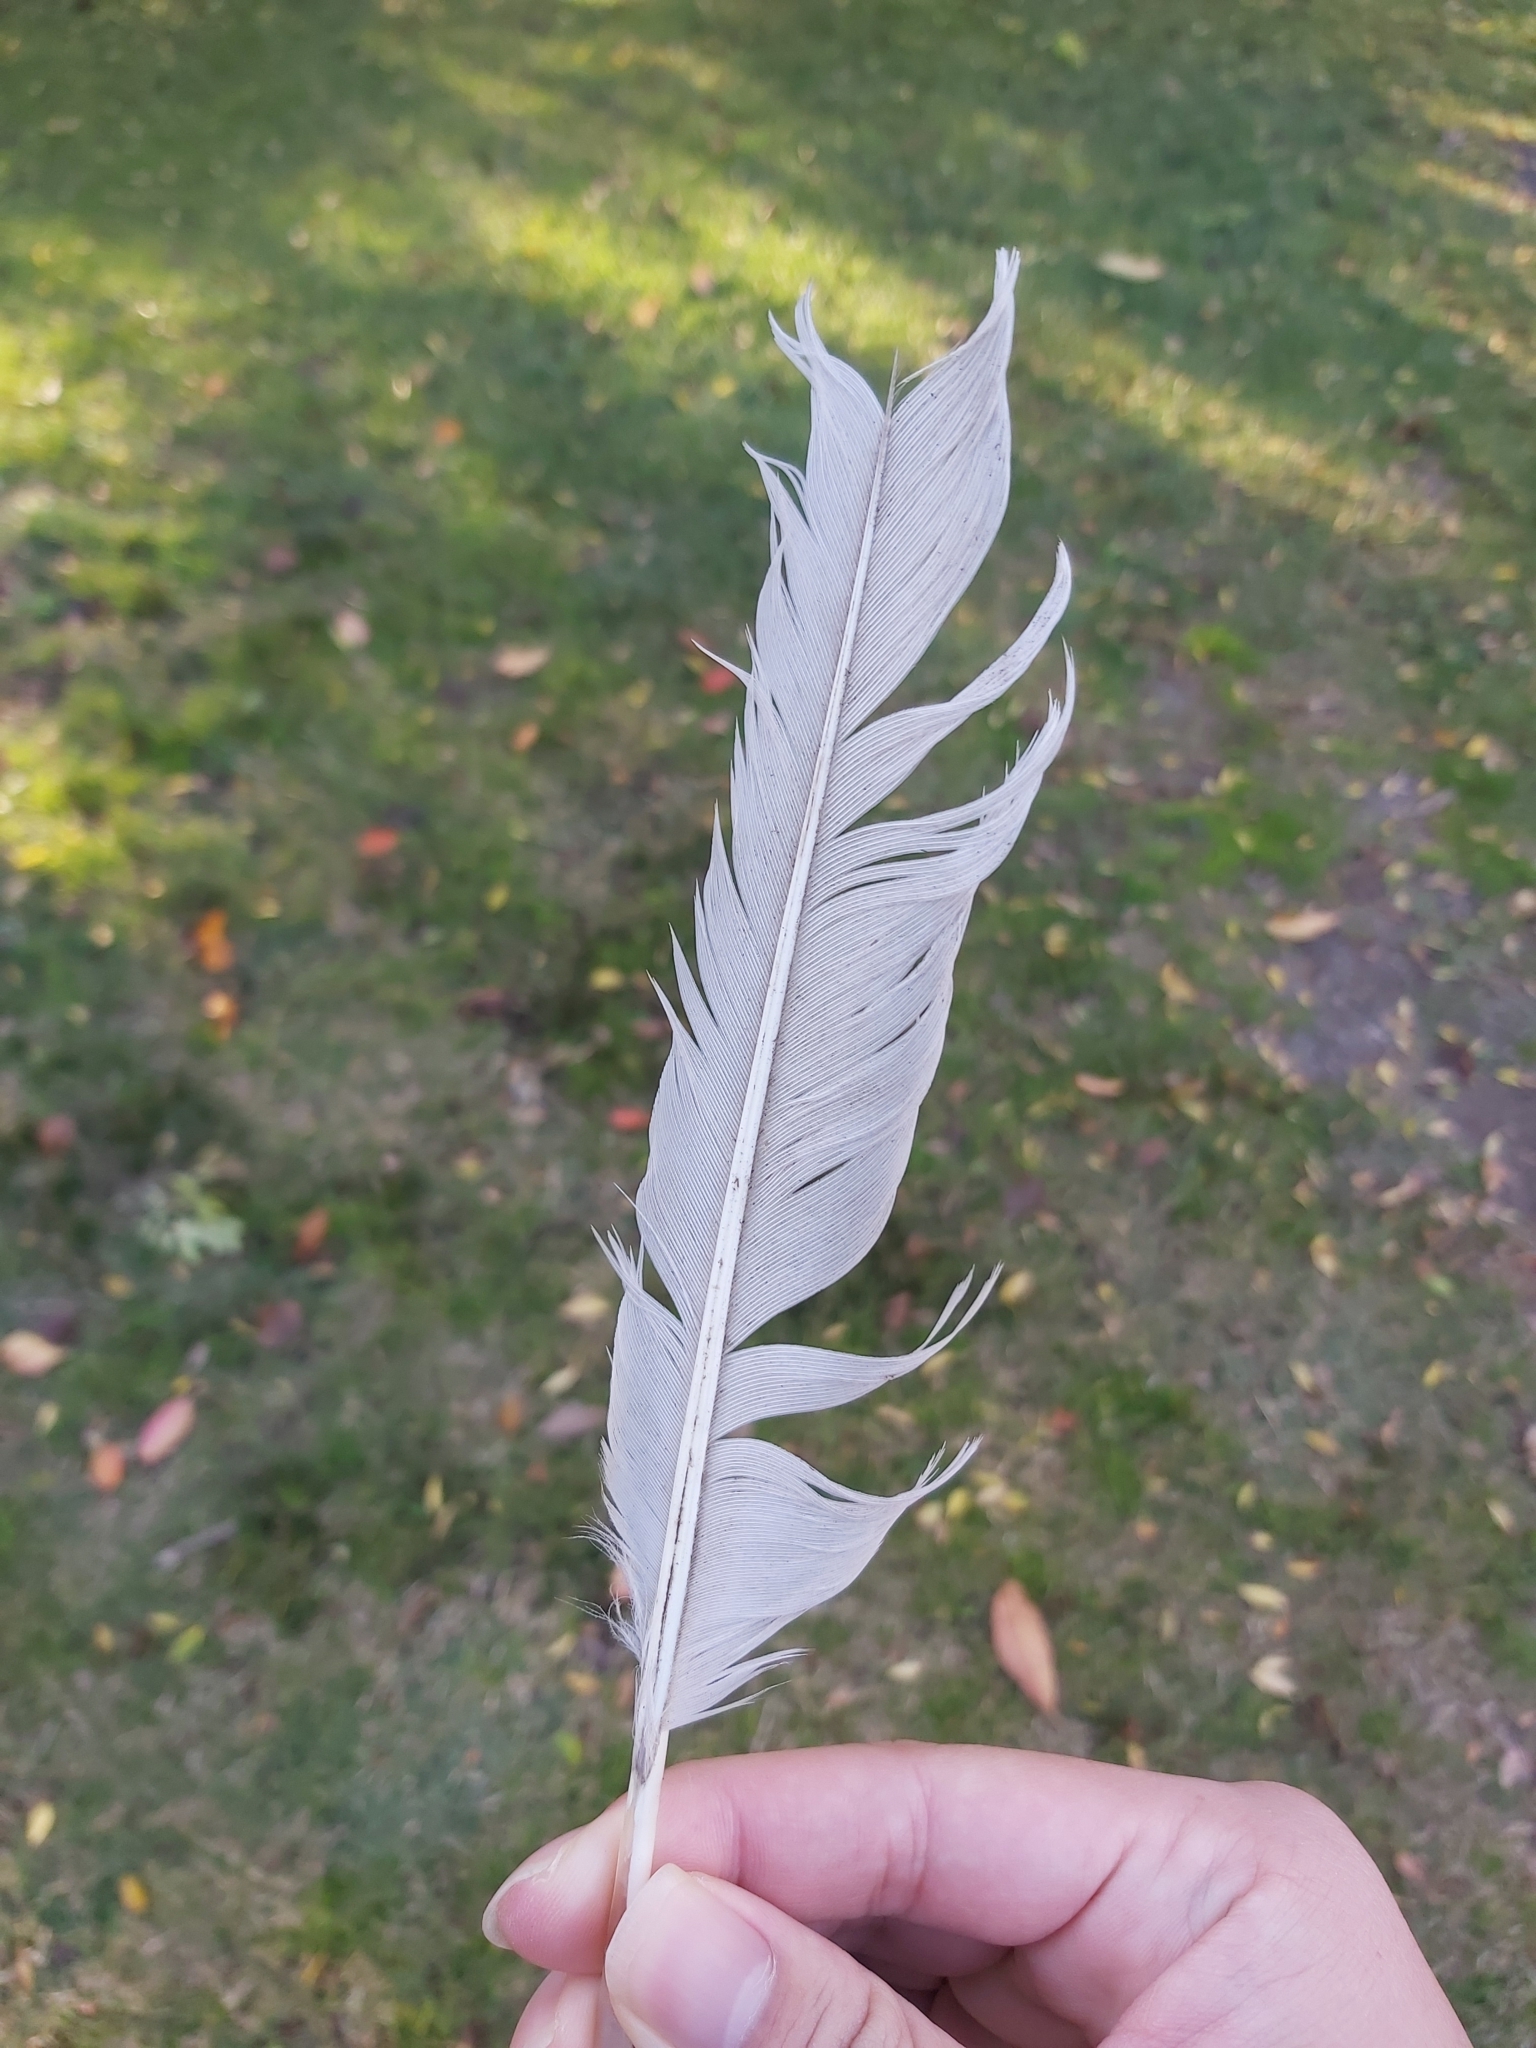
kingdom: Animalia
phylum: Chordata
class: Aves
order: Pelecaniformes
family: Threskiornithidae
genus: Threskiornis
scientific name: Threskiornis molucca
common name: Australian white ibis
